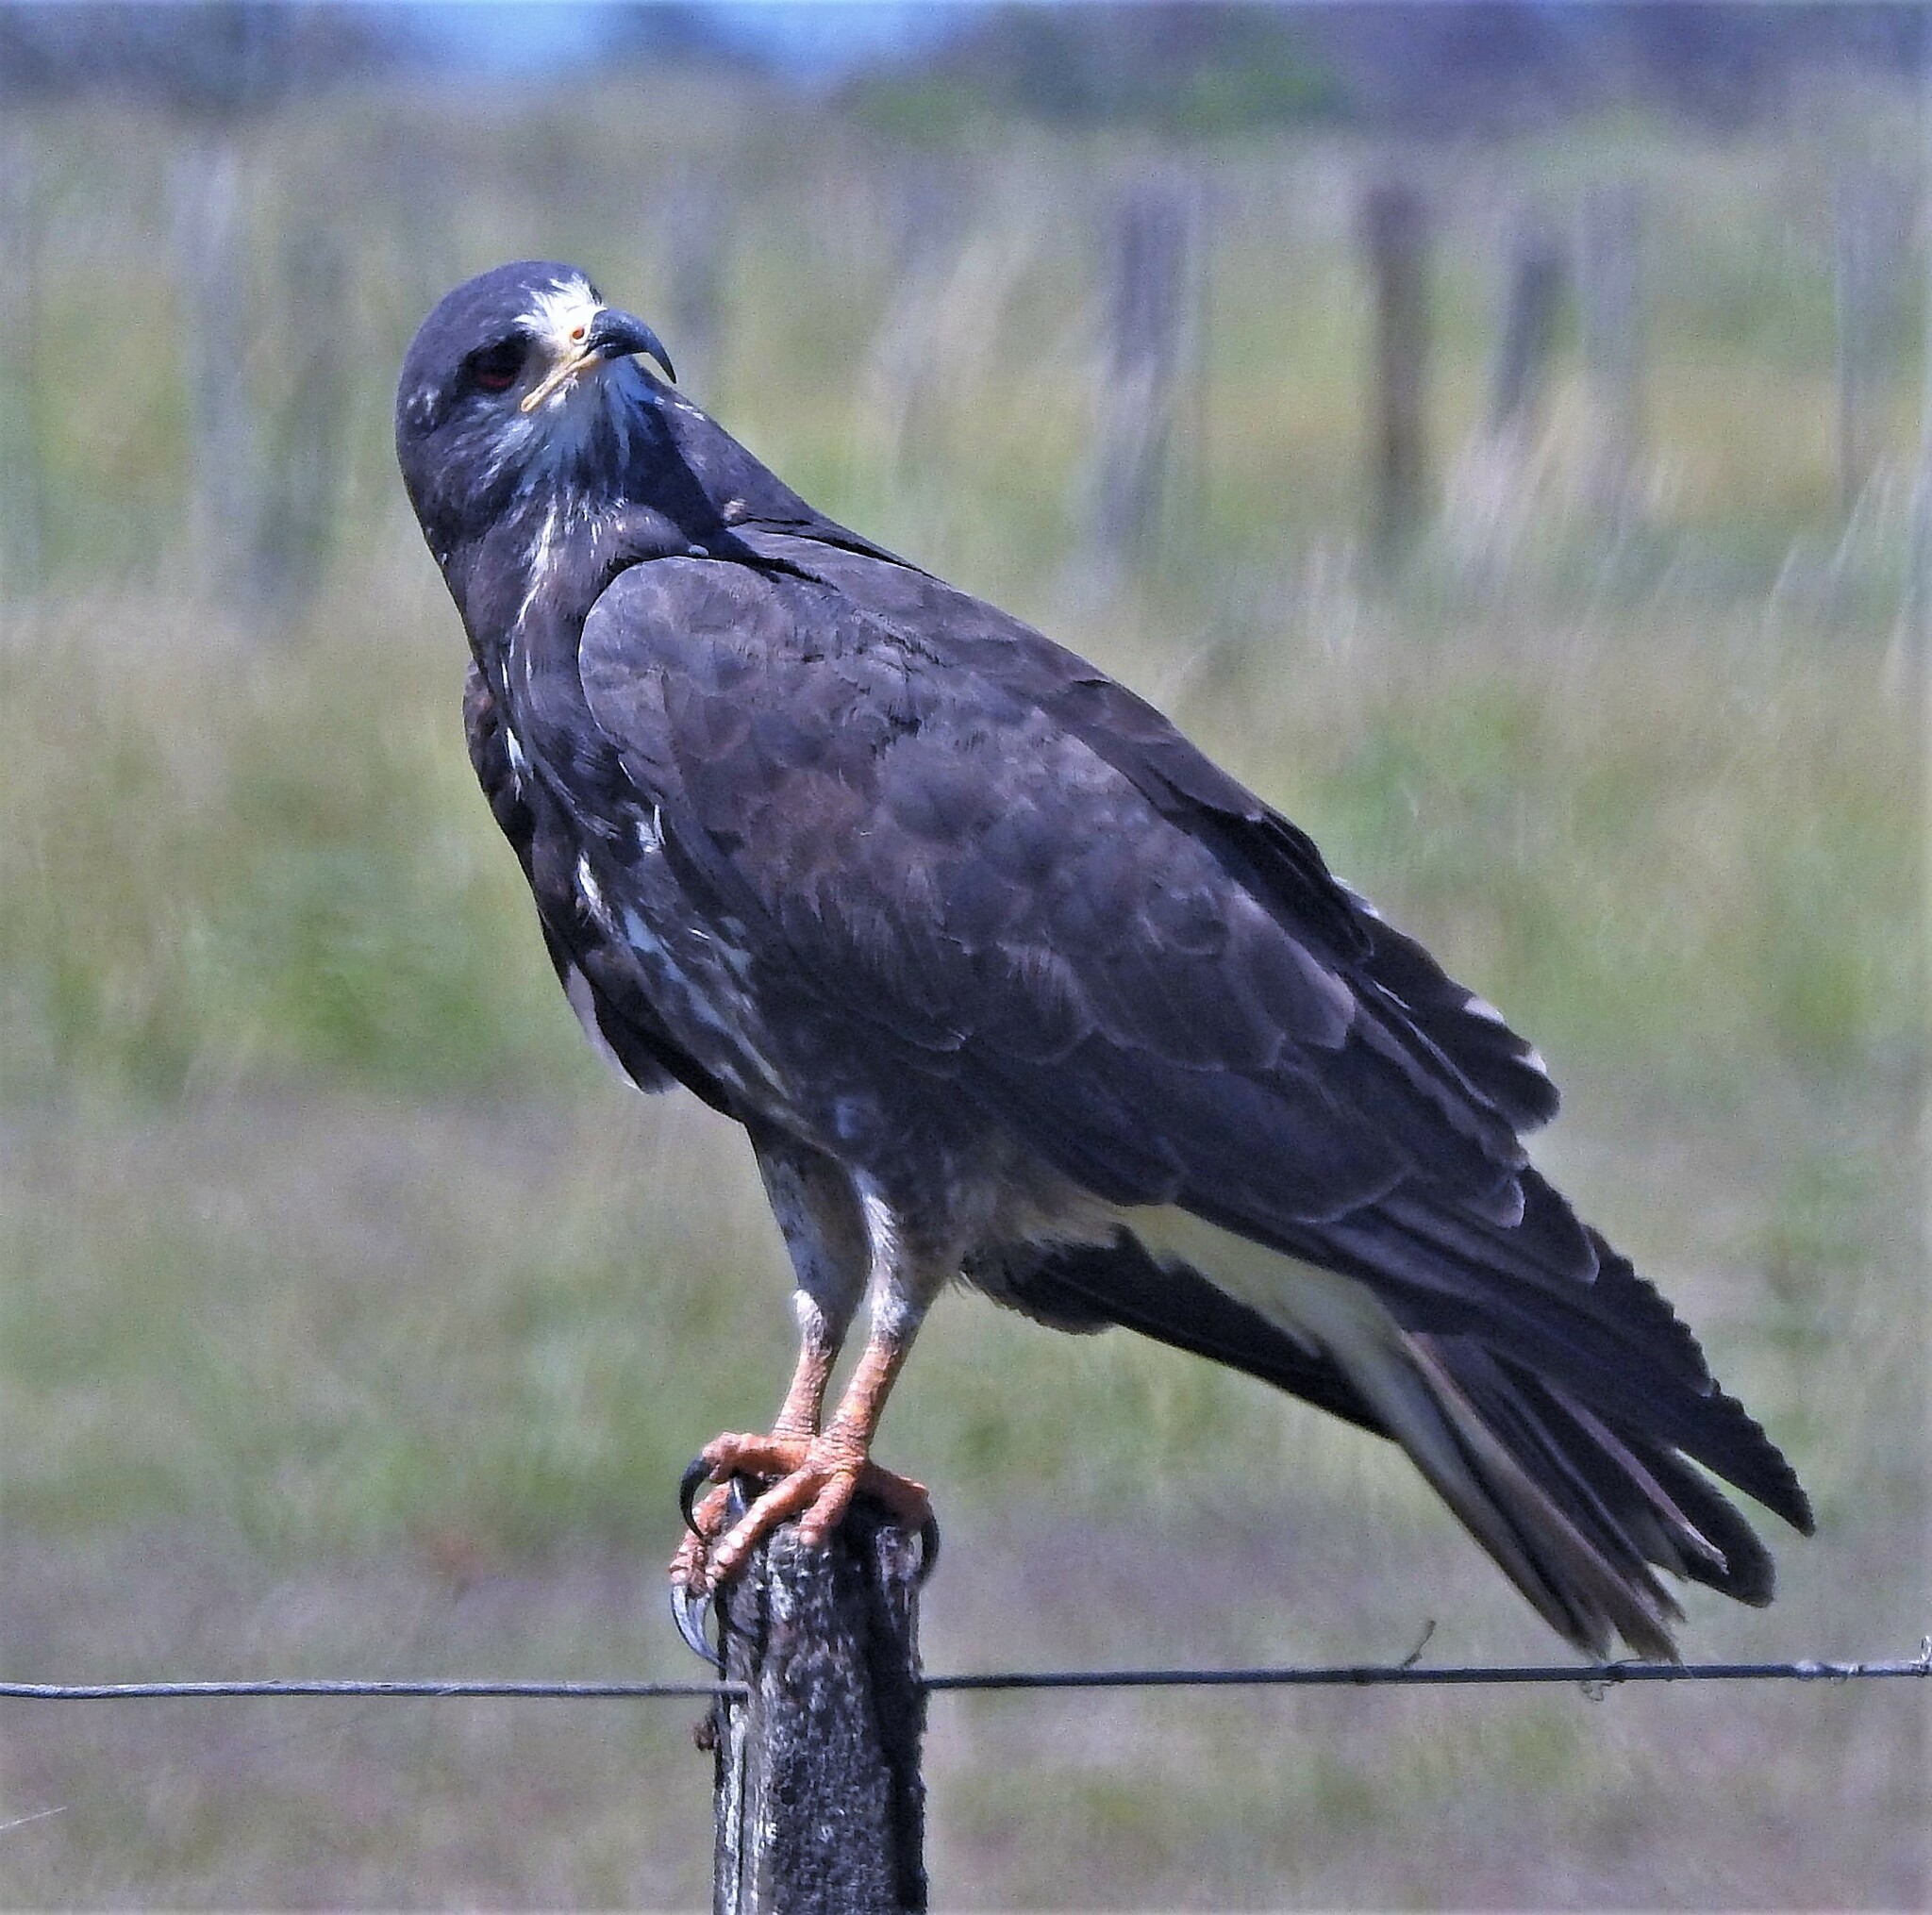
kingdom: Animalia
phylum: Chordata
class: Aves
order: Accipitriformes
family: Accipitridae
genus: Rostrhamus
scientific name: Rostrhamus sociabilis
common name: Snail kite
